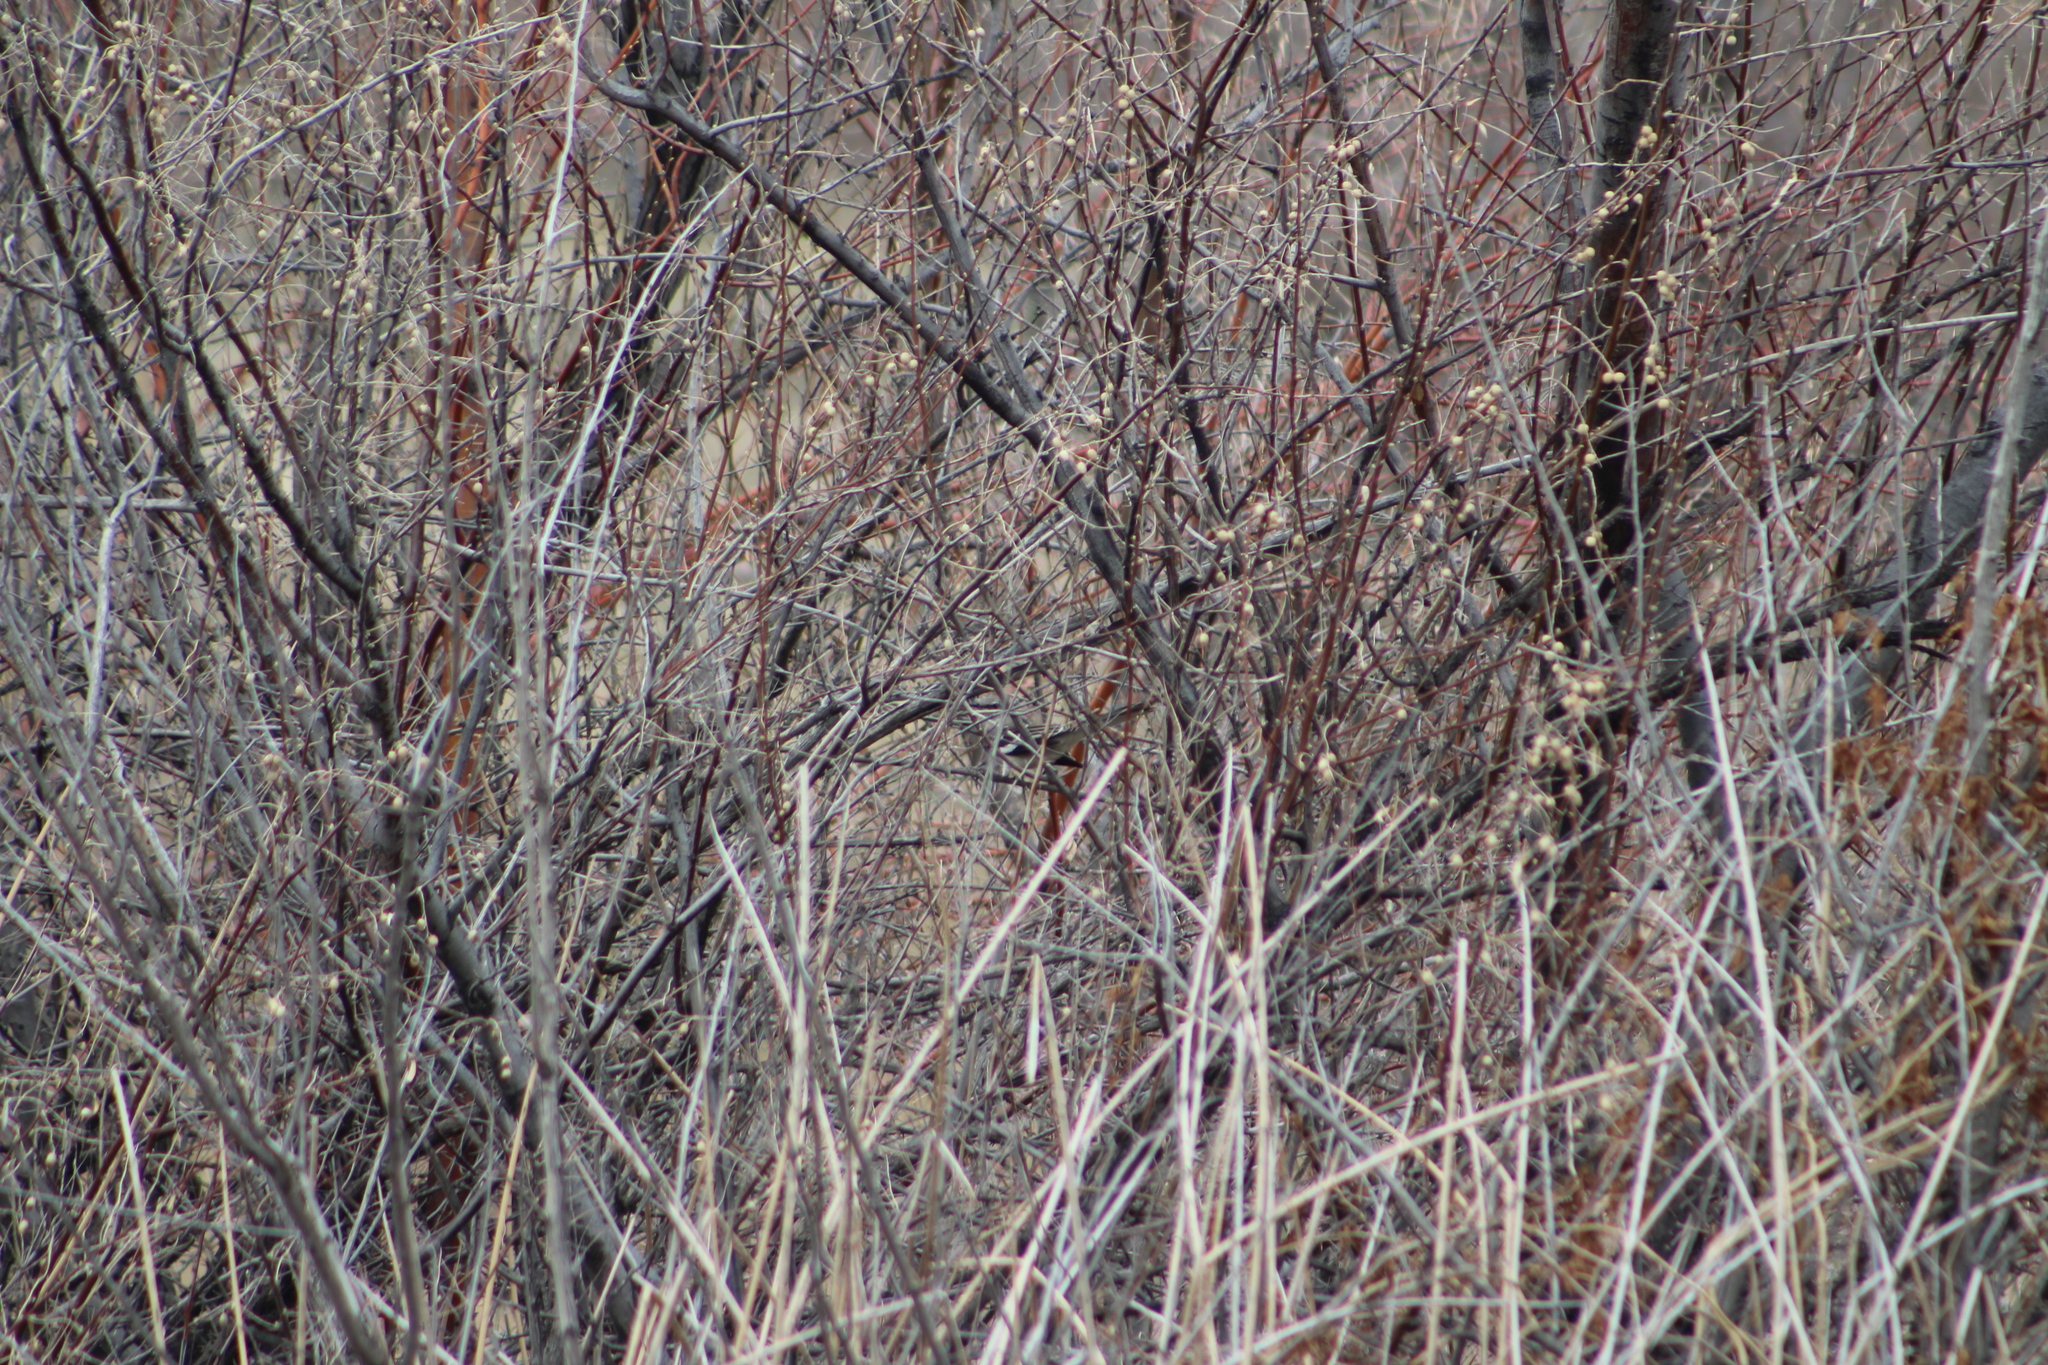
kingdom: Animalia
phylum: Chordata
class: Aves
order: Passeriformes
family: Mimidae
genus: Mimus
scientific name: Mimus polyglottos
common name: Northern mockingbird
